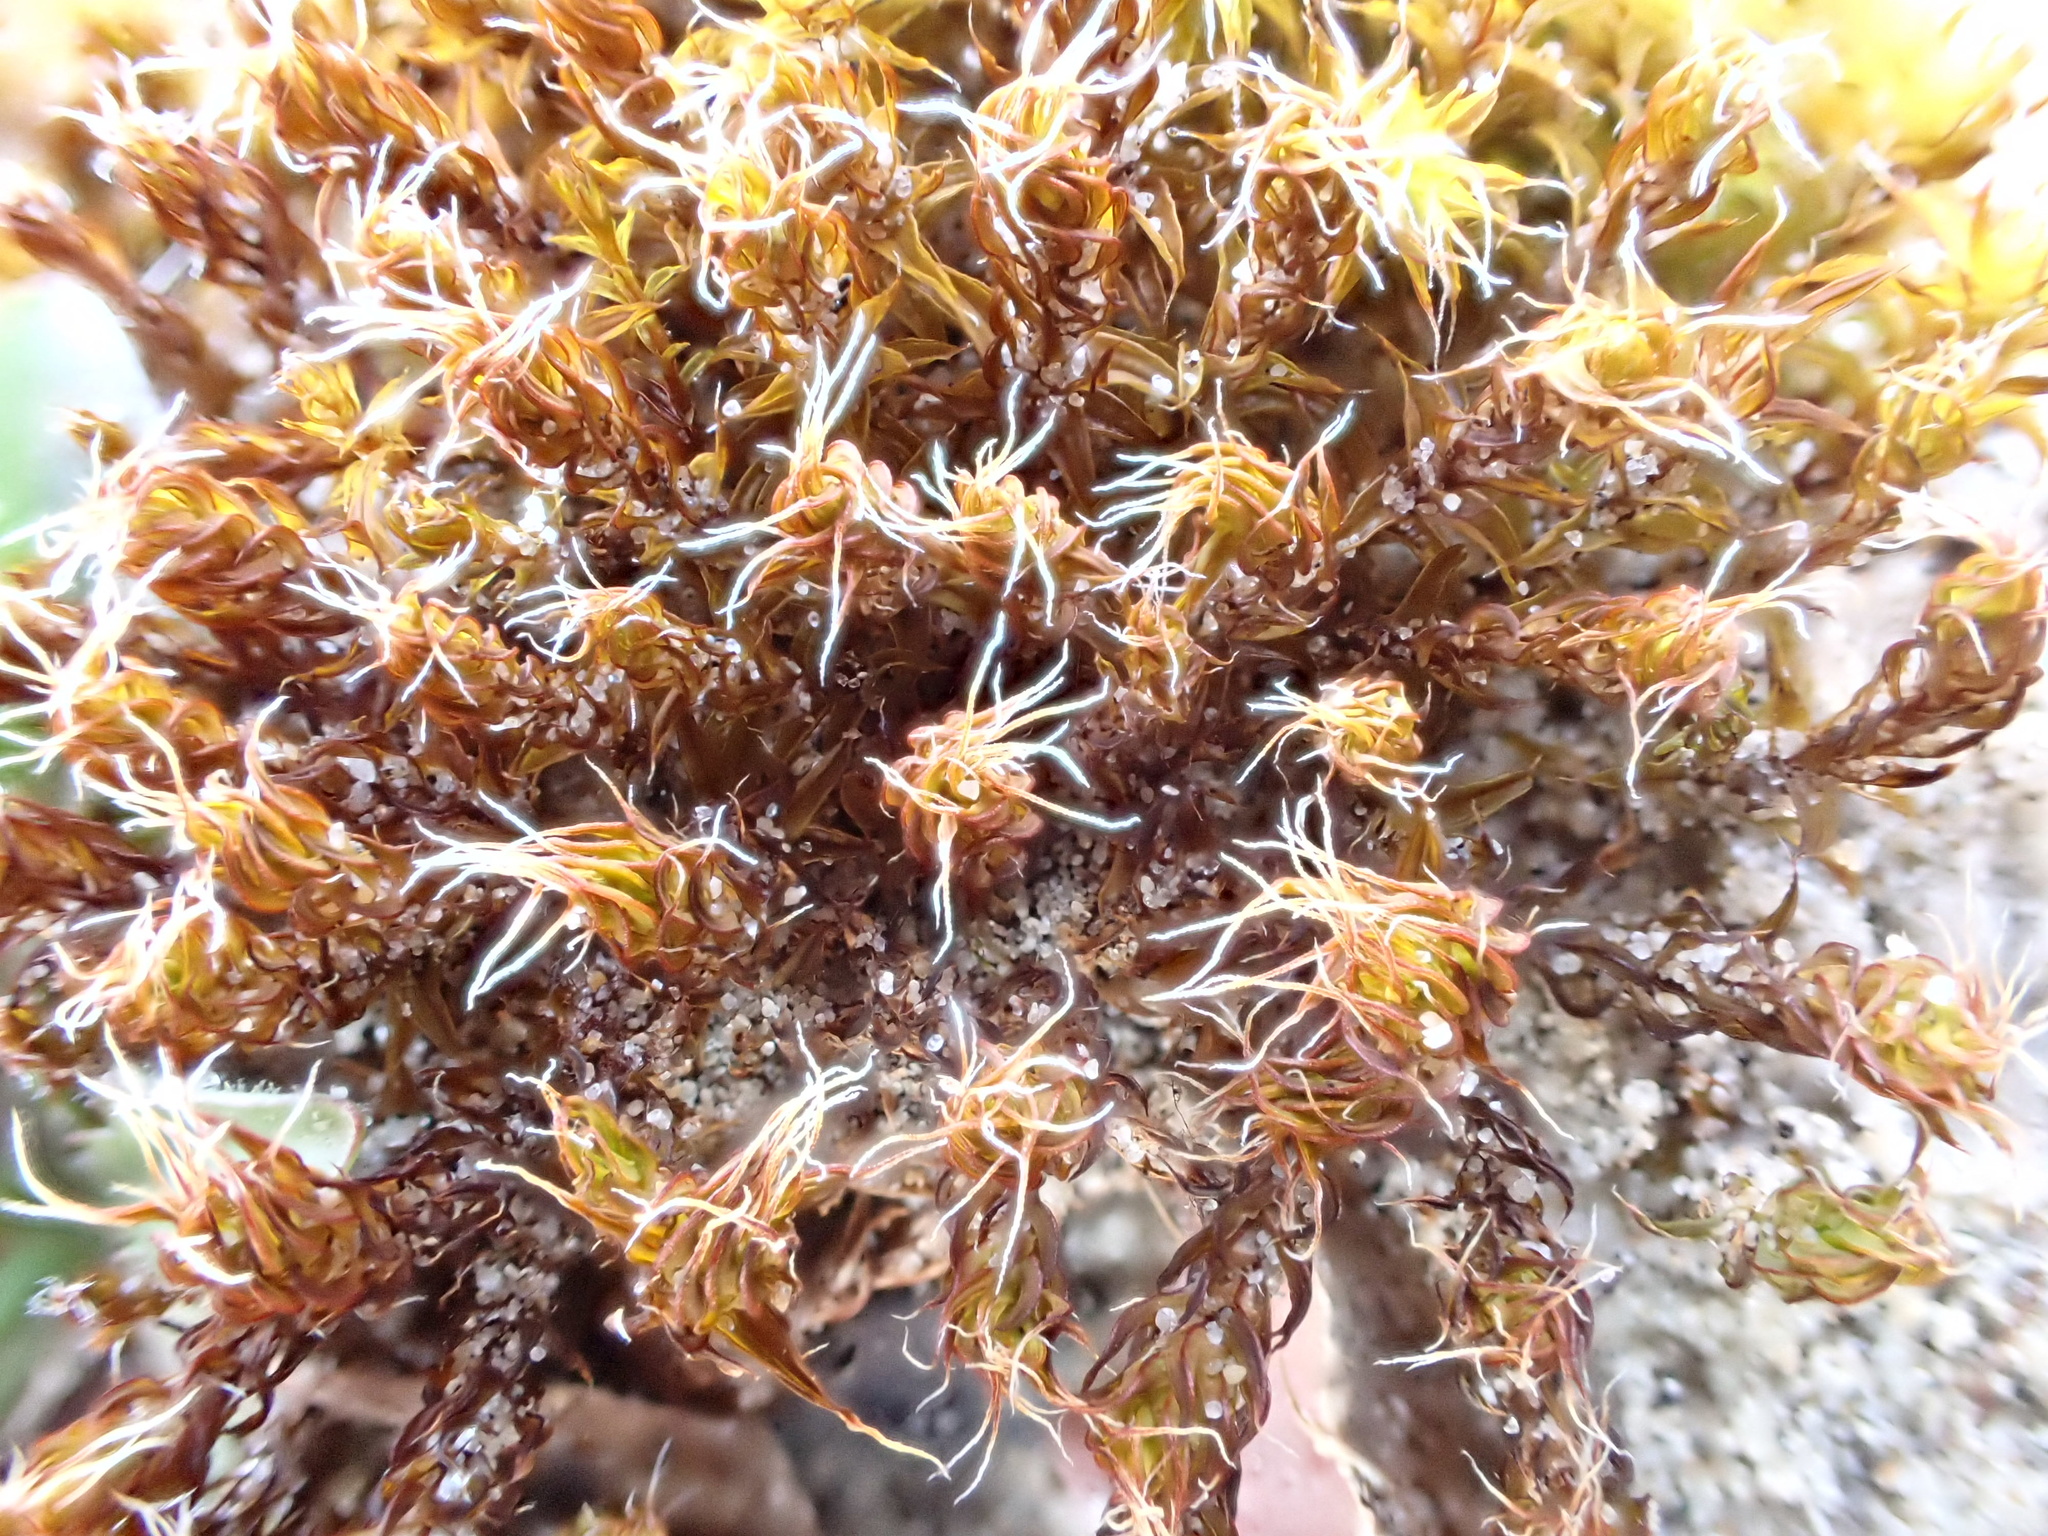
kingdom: Plantae
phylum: Bryophyta
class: Bryopsida
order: Pottiales
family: Pottiaceae
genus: Syntrichia
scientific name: Syntrichia ruralis
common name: Sidewalk screw moss
